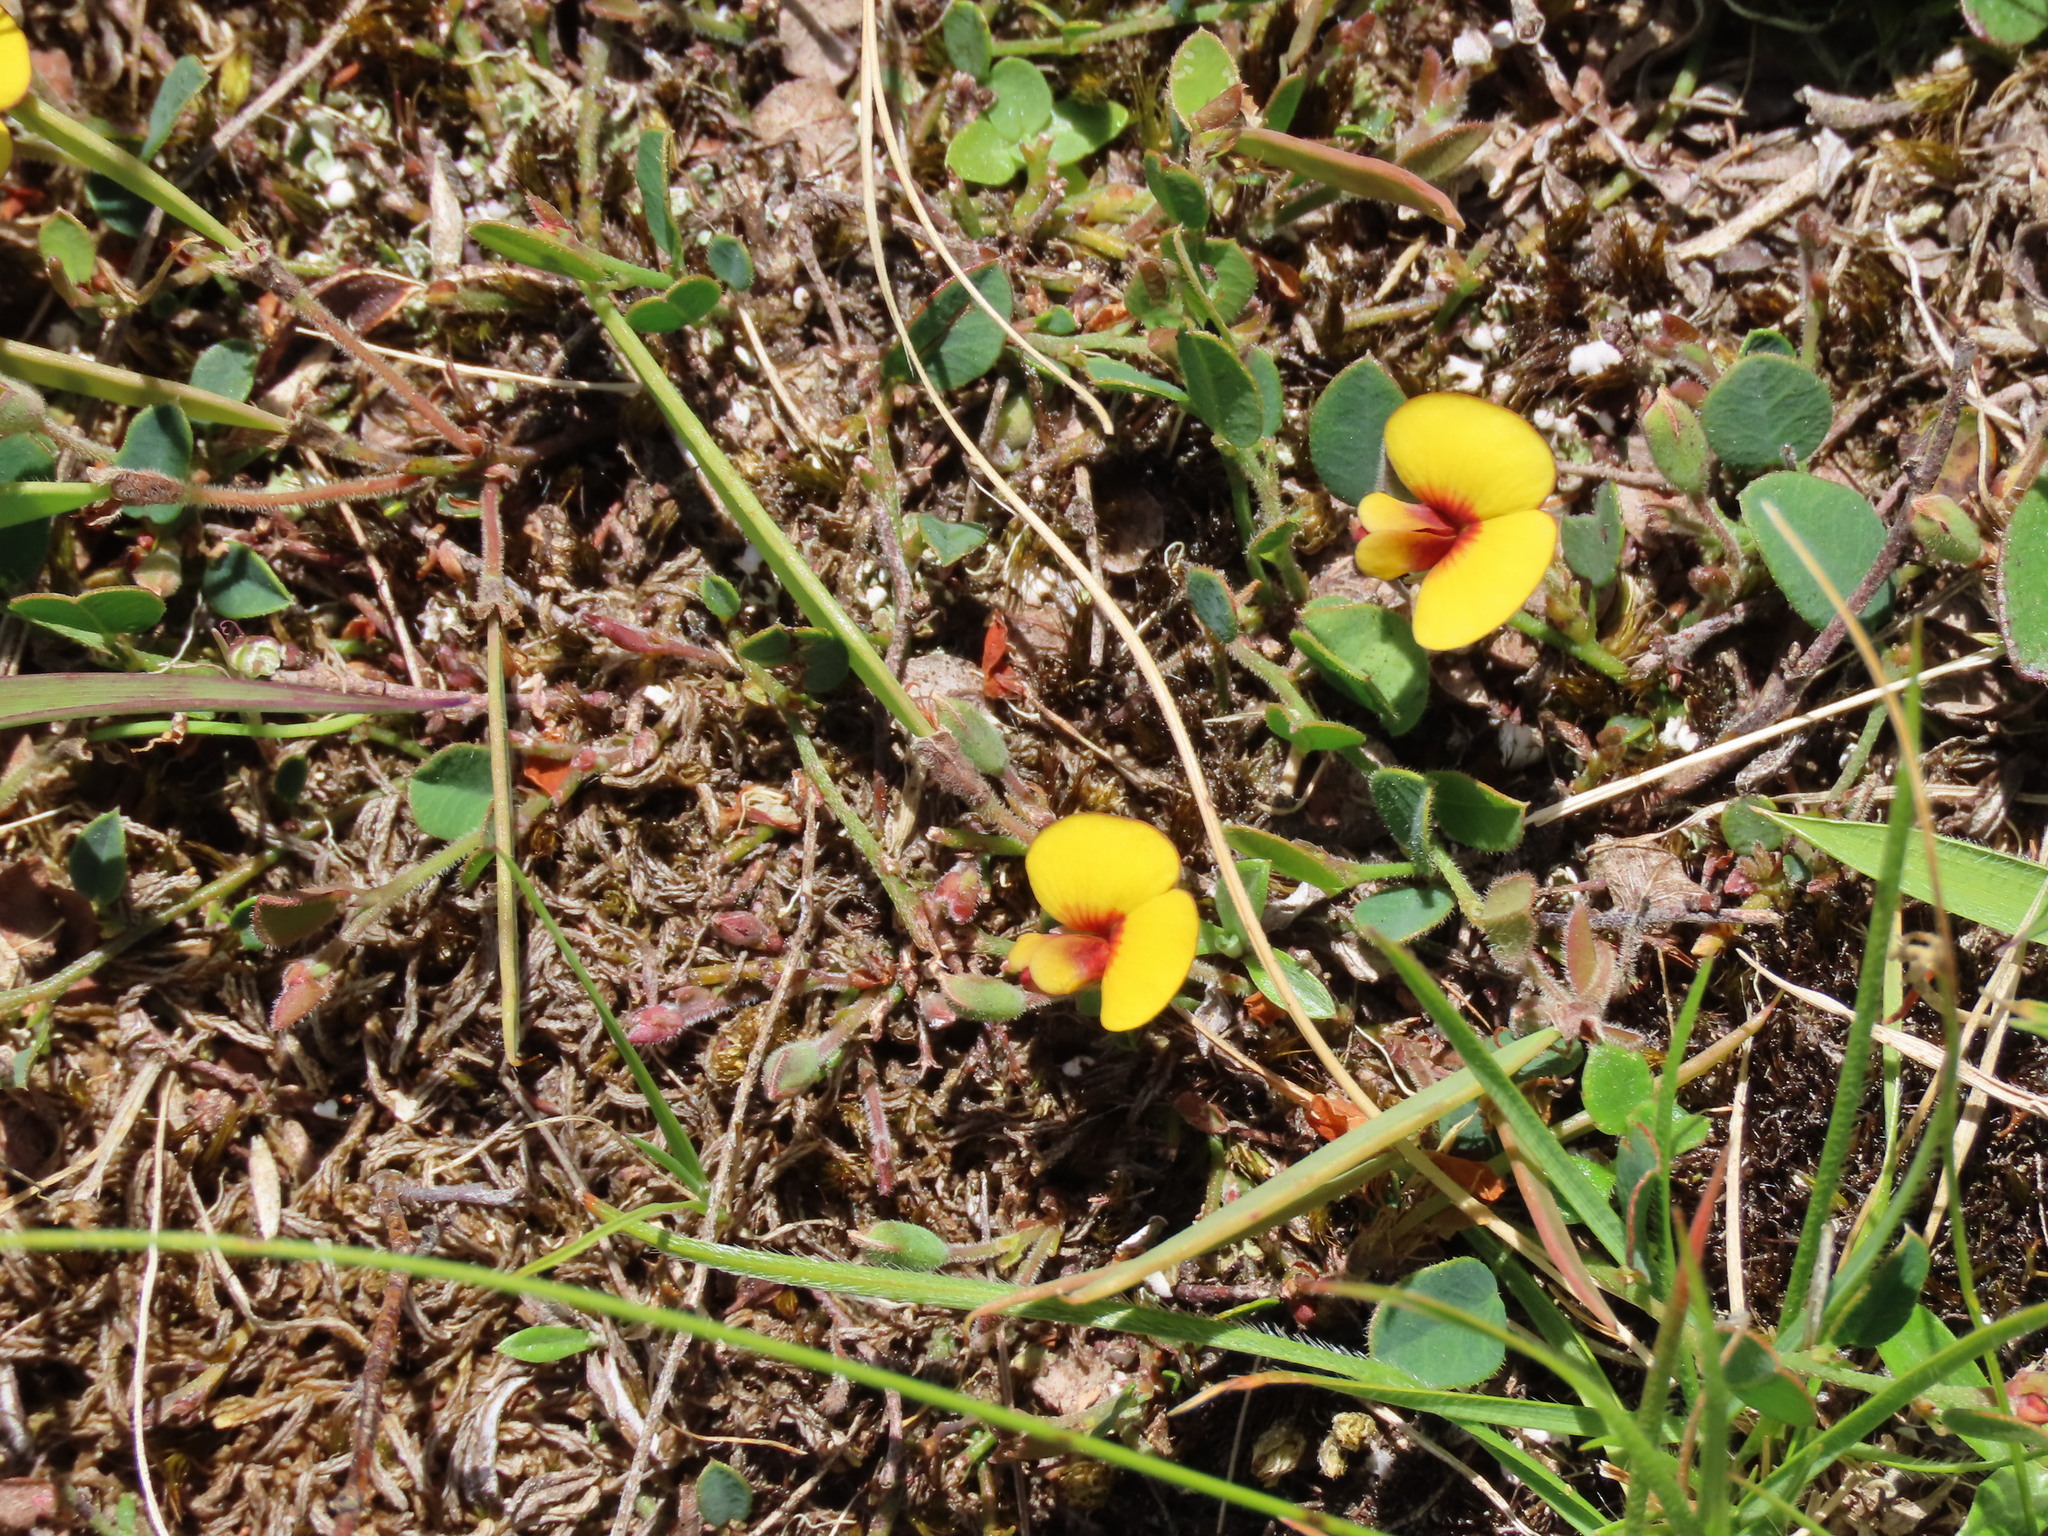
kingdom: Plantae
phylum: Tracheophyta
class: Magnoliopsida
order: Fabales
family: Fabaceae
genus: Bossiaea
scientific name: Bossiaea prostrata
